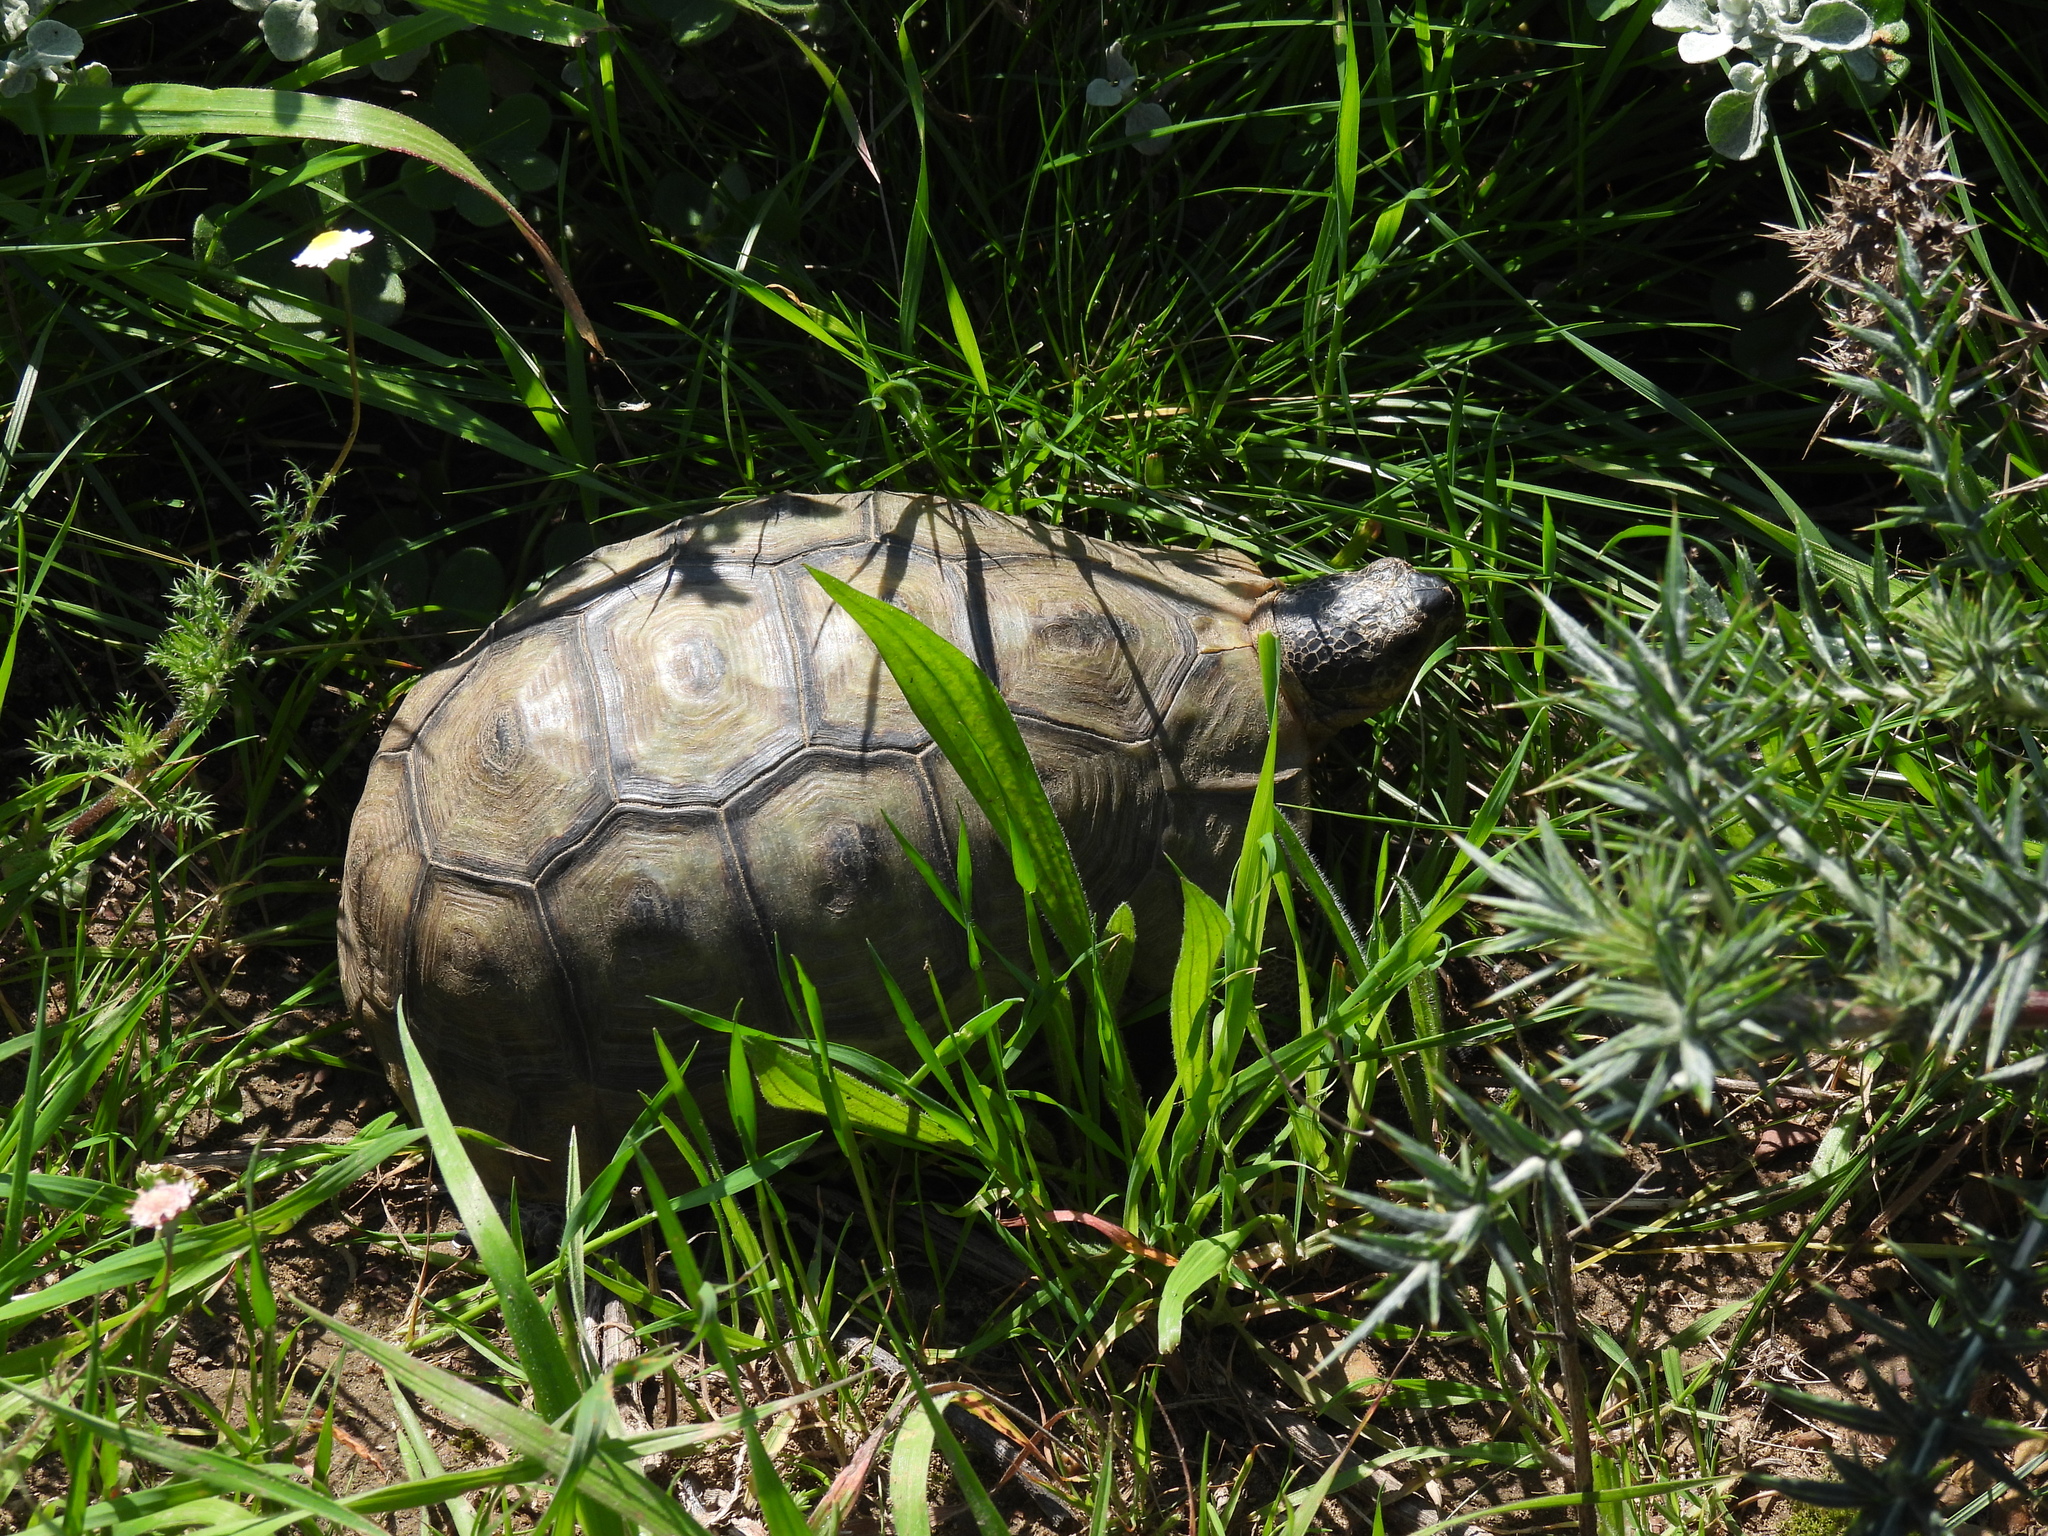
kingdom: Animalia
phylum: Chordata
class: Testudines
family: Testudinidae
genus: Chersina
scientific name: Chersina angulata
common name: South african bowsprit tortoise
